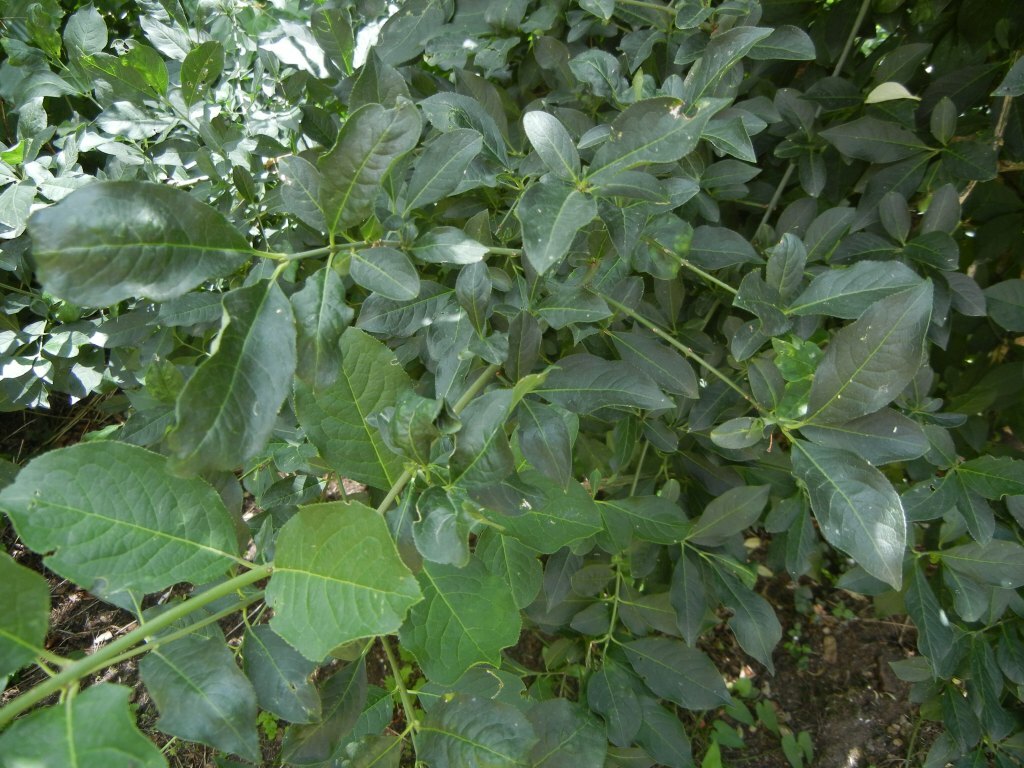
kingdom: Plantae
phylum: Tracheophyta
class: Magnoliopsida
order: Celastrales
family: Celastraceae
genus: Euonymus
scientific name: Euonymus europaeus
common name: Spindle
